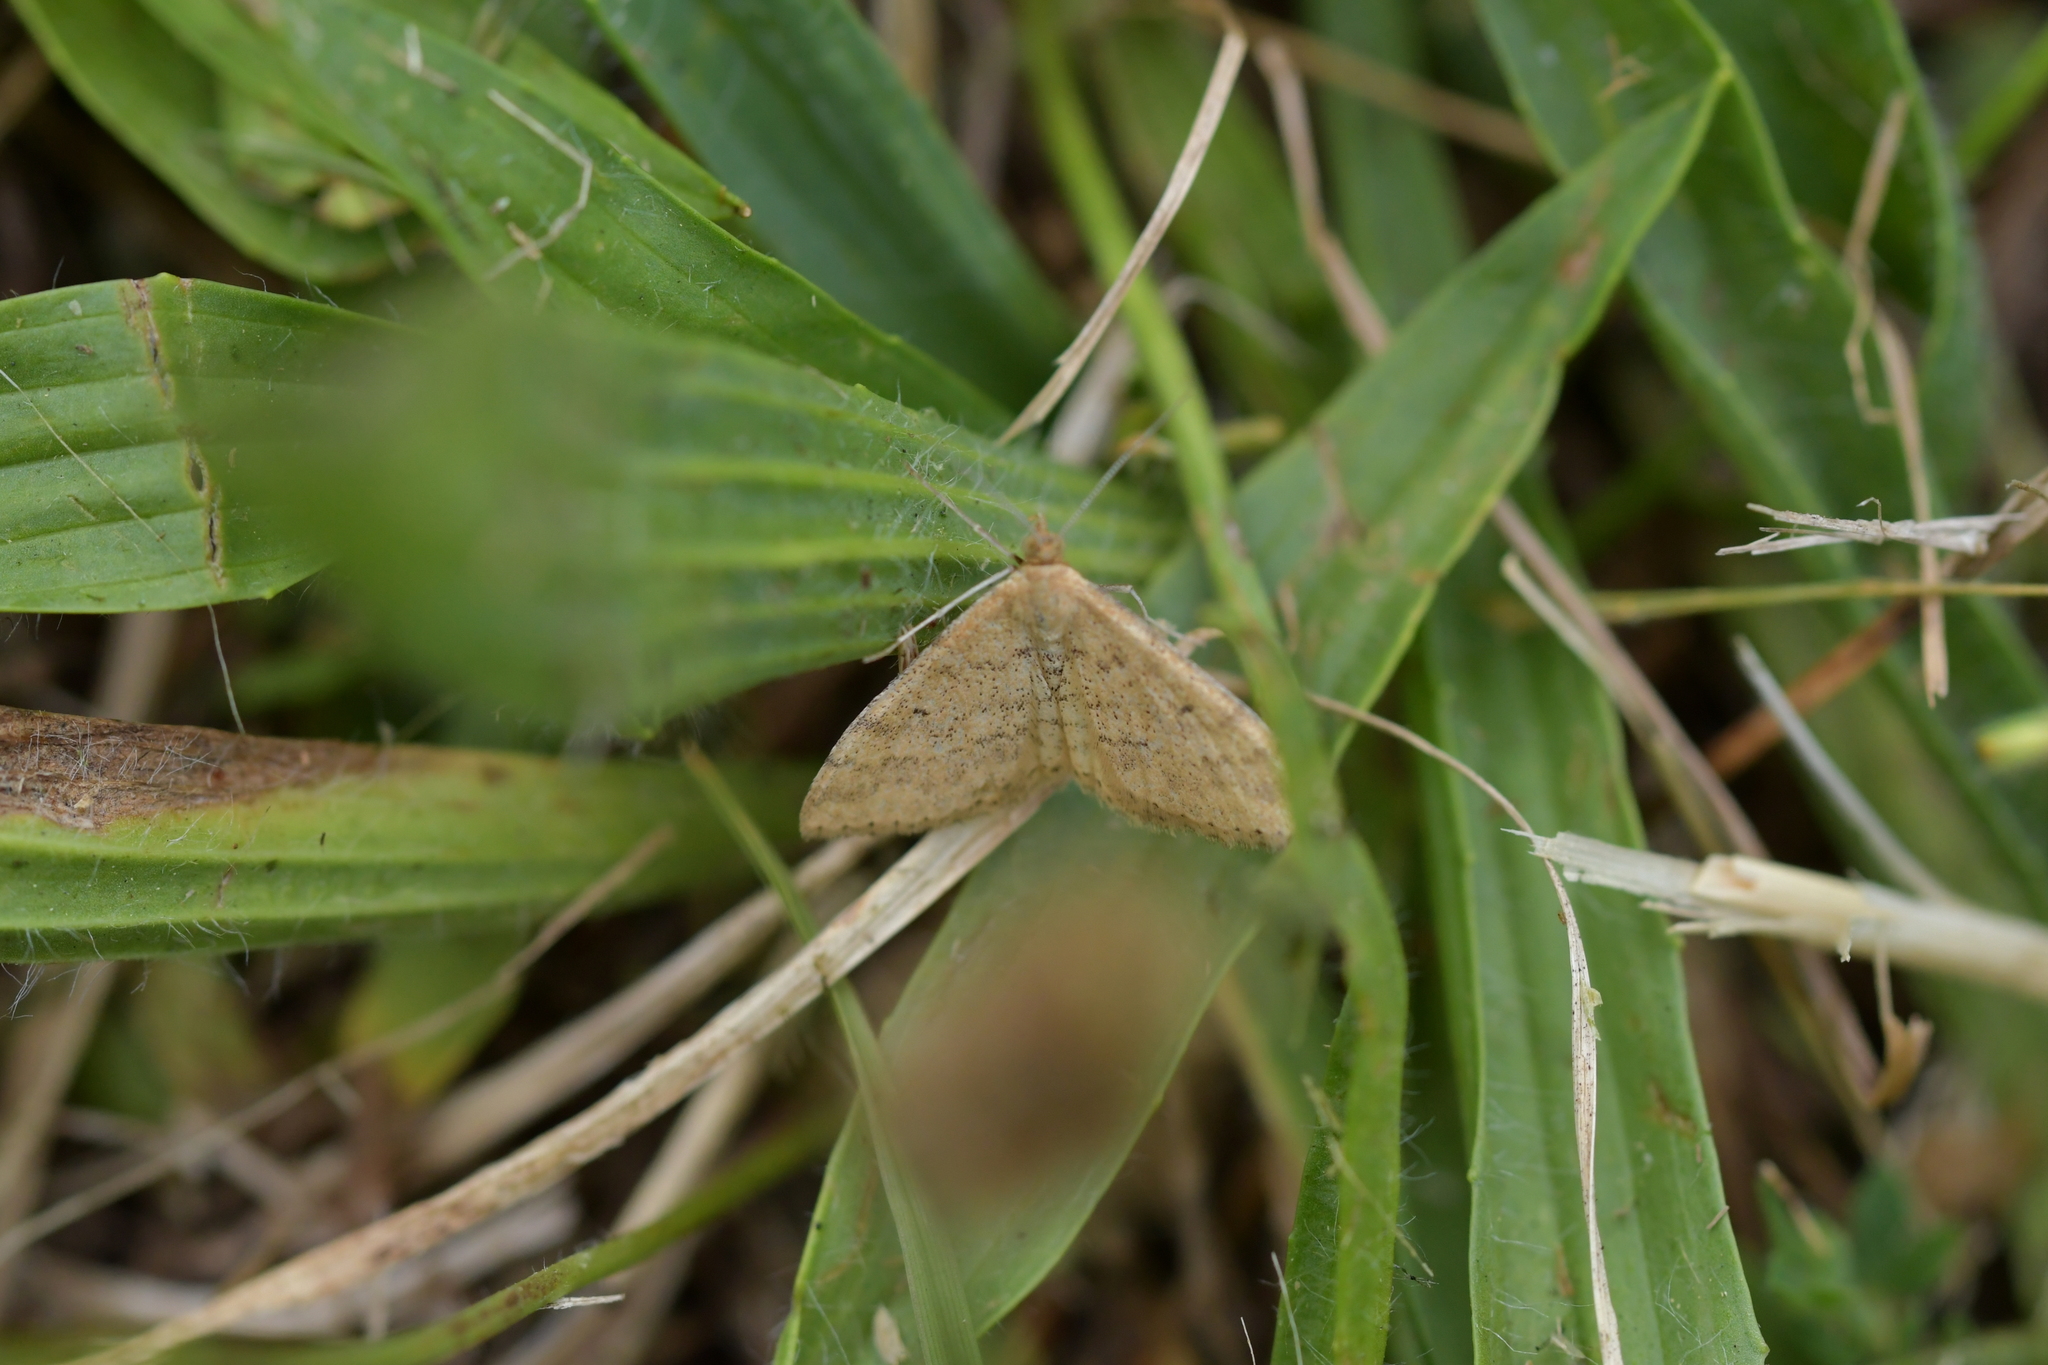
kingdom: Animalia
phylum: Arthropoda
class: Insecta
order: Lepidoptera
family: Geometridae
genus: Scopula
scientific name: Scopula rubraria
